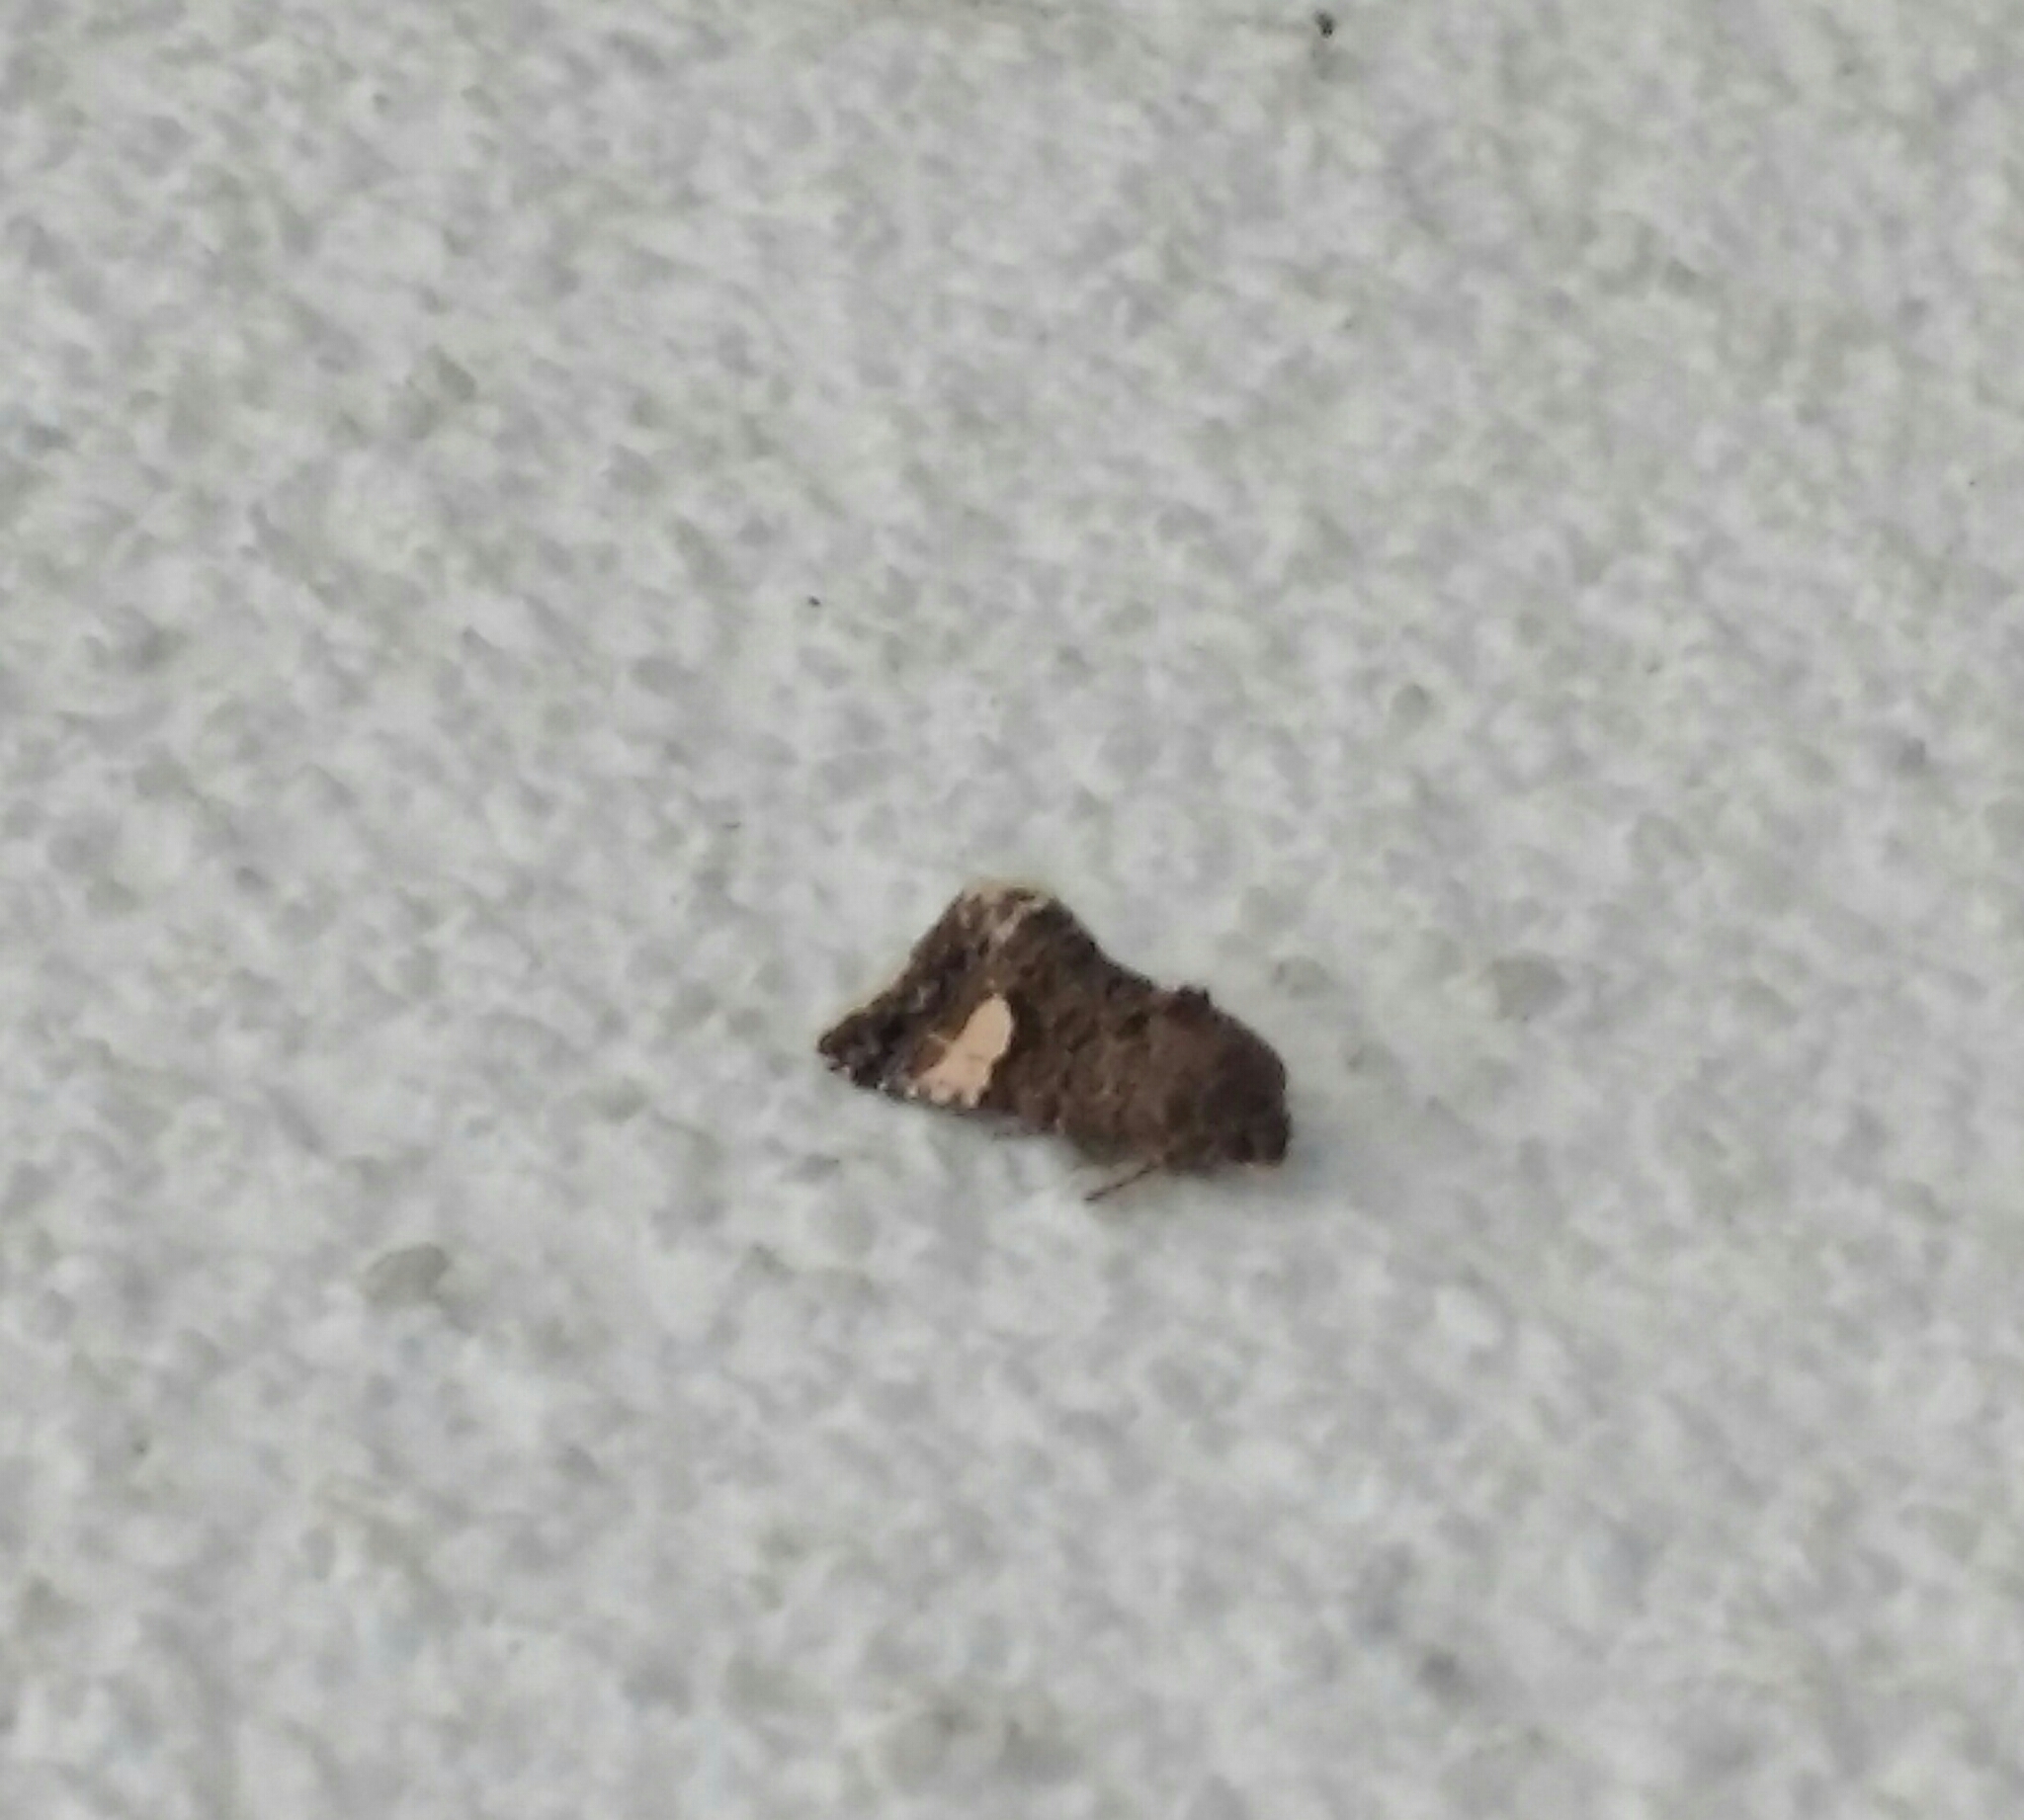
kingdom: Animalia
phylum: Arthropoda
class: Insecta
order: Lepidoptera
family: Erebidae
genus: Tyta
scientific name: Tyta luctuosa
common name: Four-spotted
